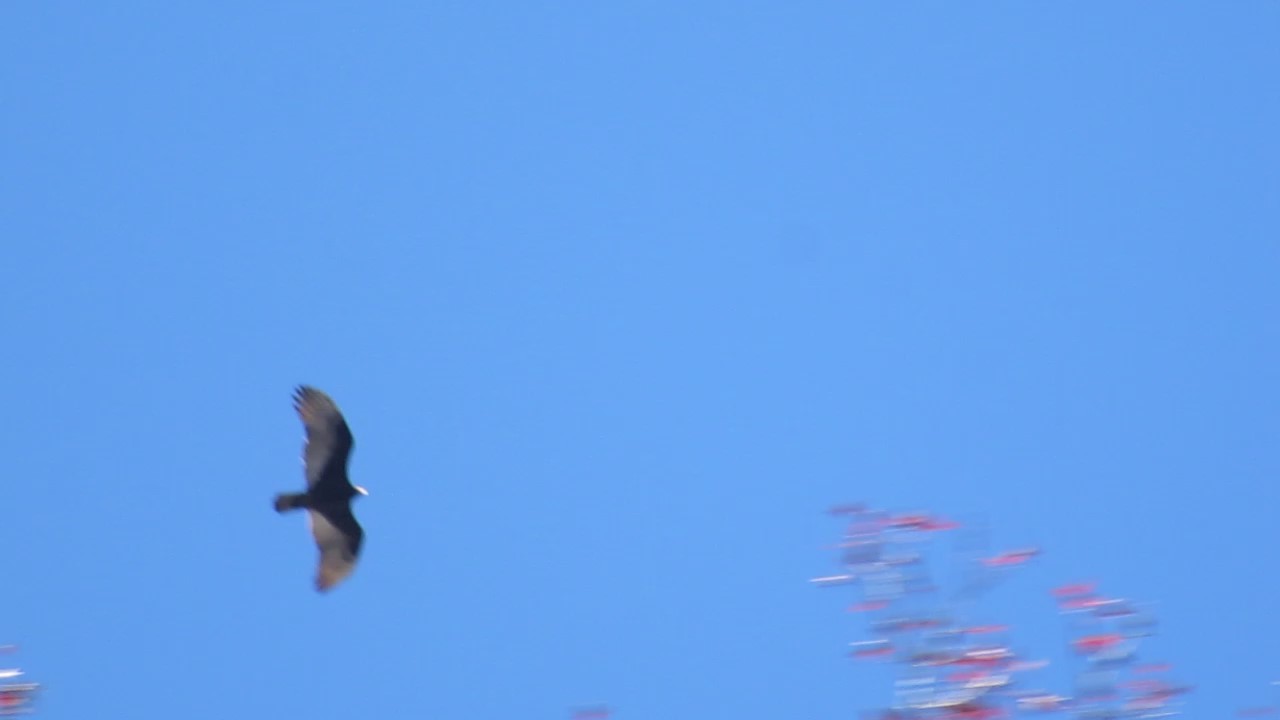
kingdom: Animalia
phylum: Chordata
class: Aves
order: Accipitriformes
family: Cathartidae
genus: Cathartes
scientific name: Cathartes aura
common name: Turkey vulture
